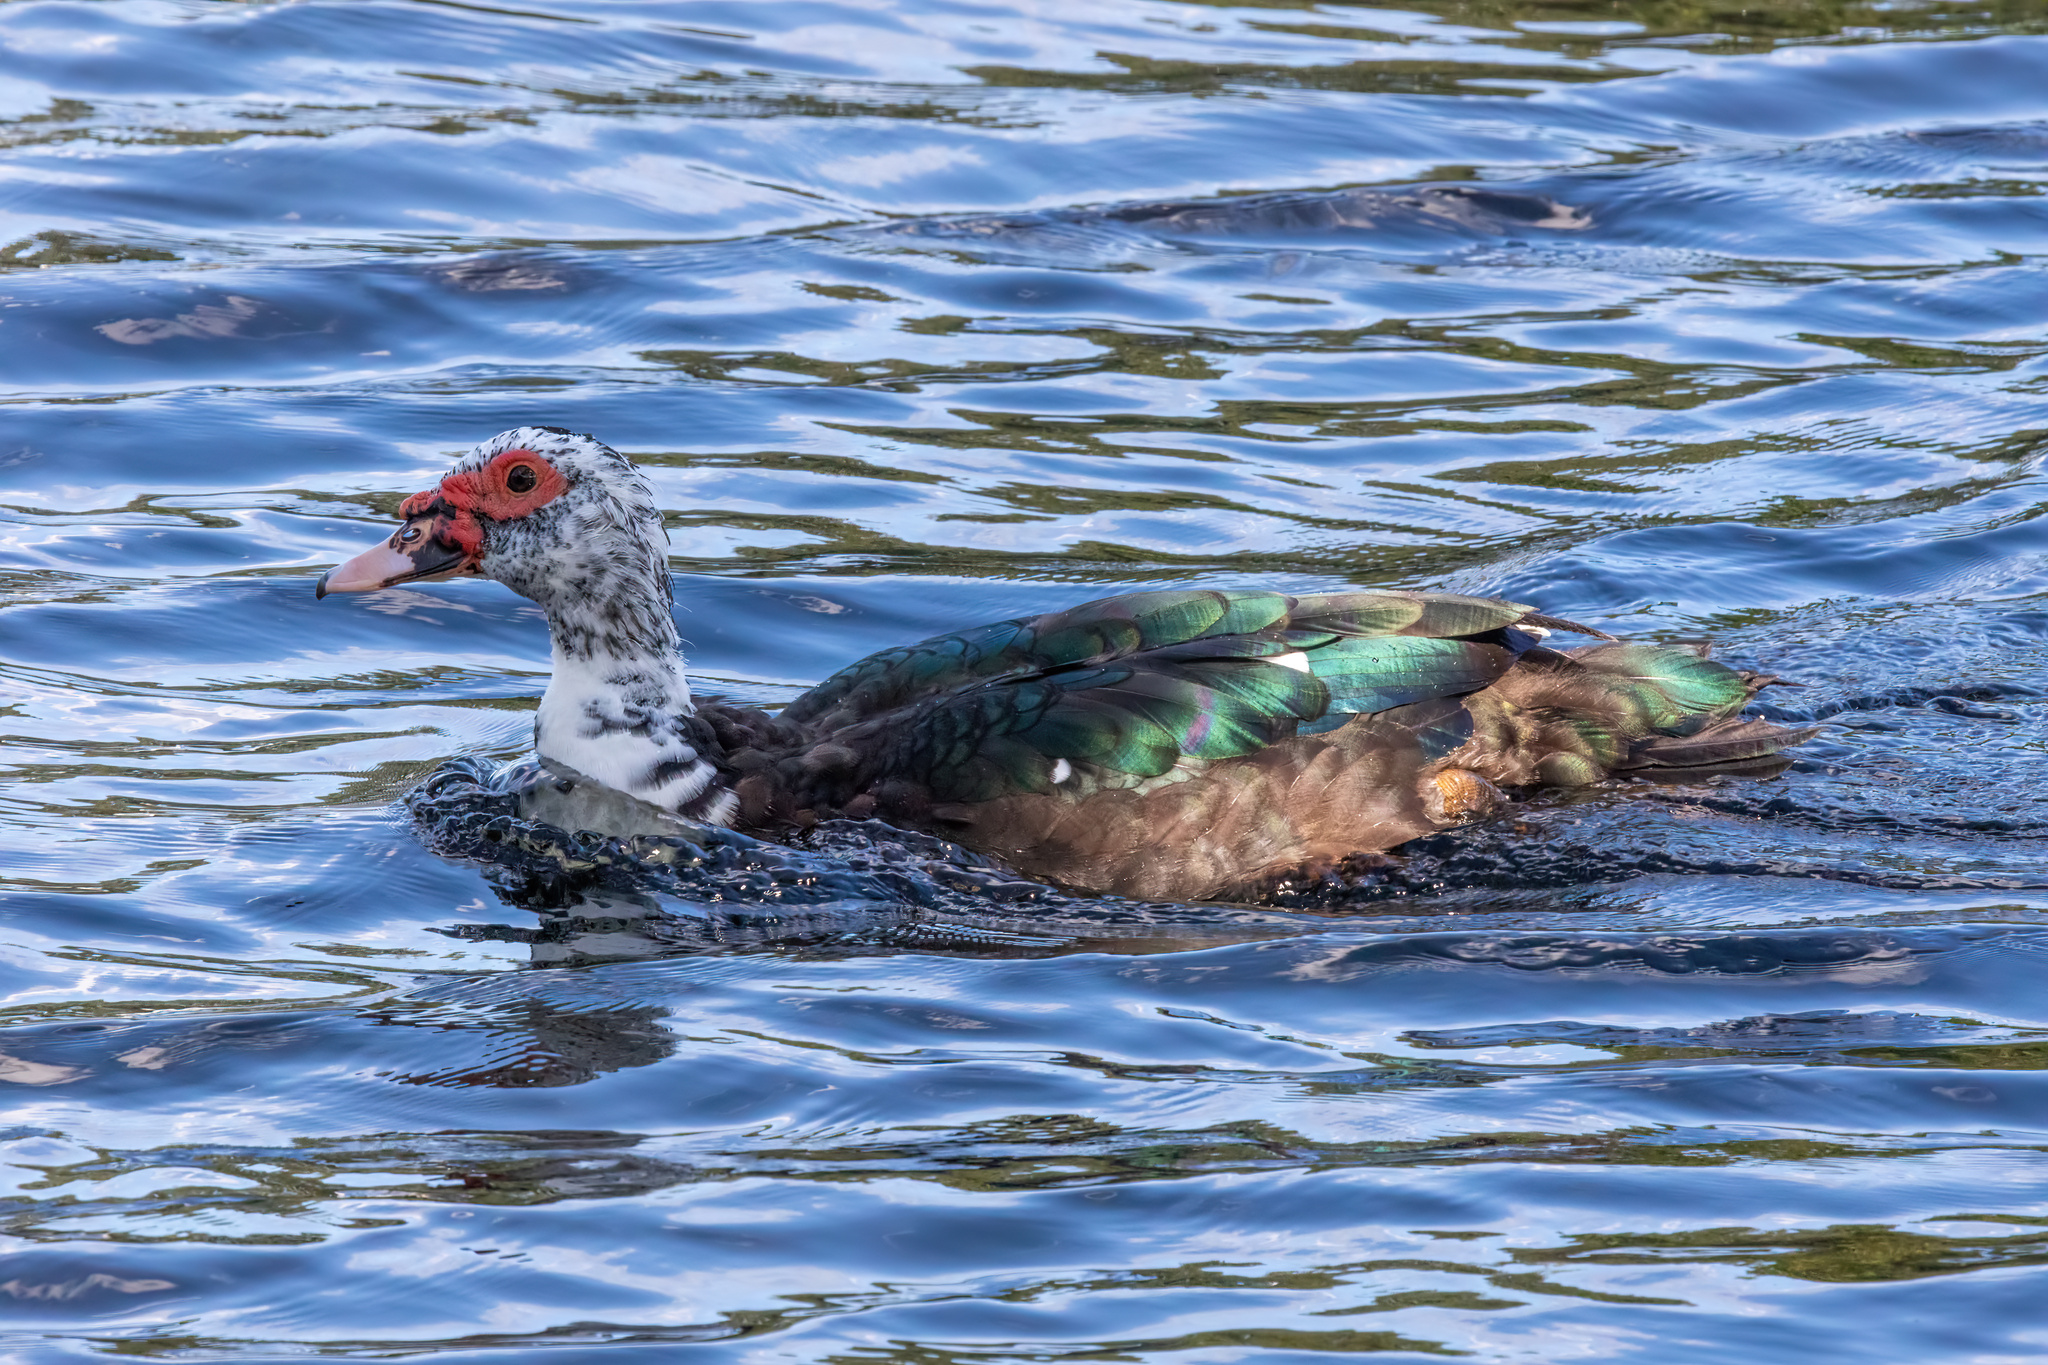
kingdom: Animalia
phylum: Chordata
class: Aves
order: Anseriformes
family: Anatidae
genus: Cairina
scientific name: Cairina moschata
